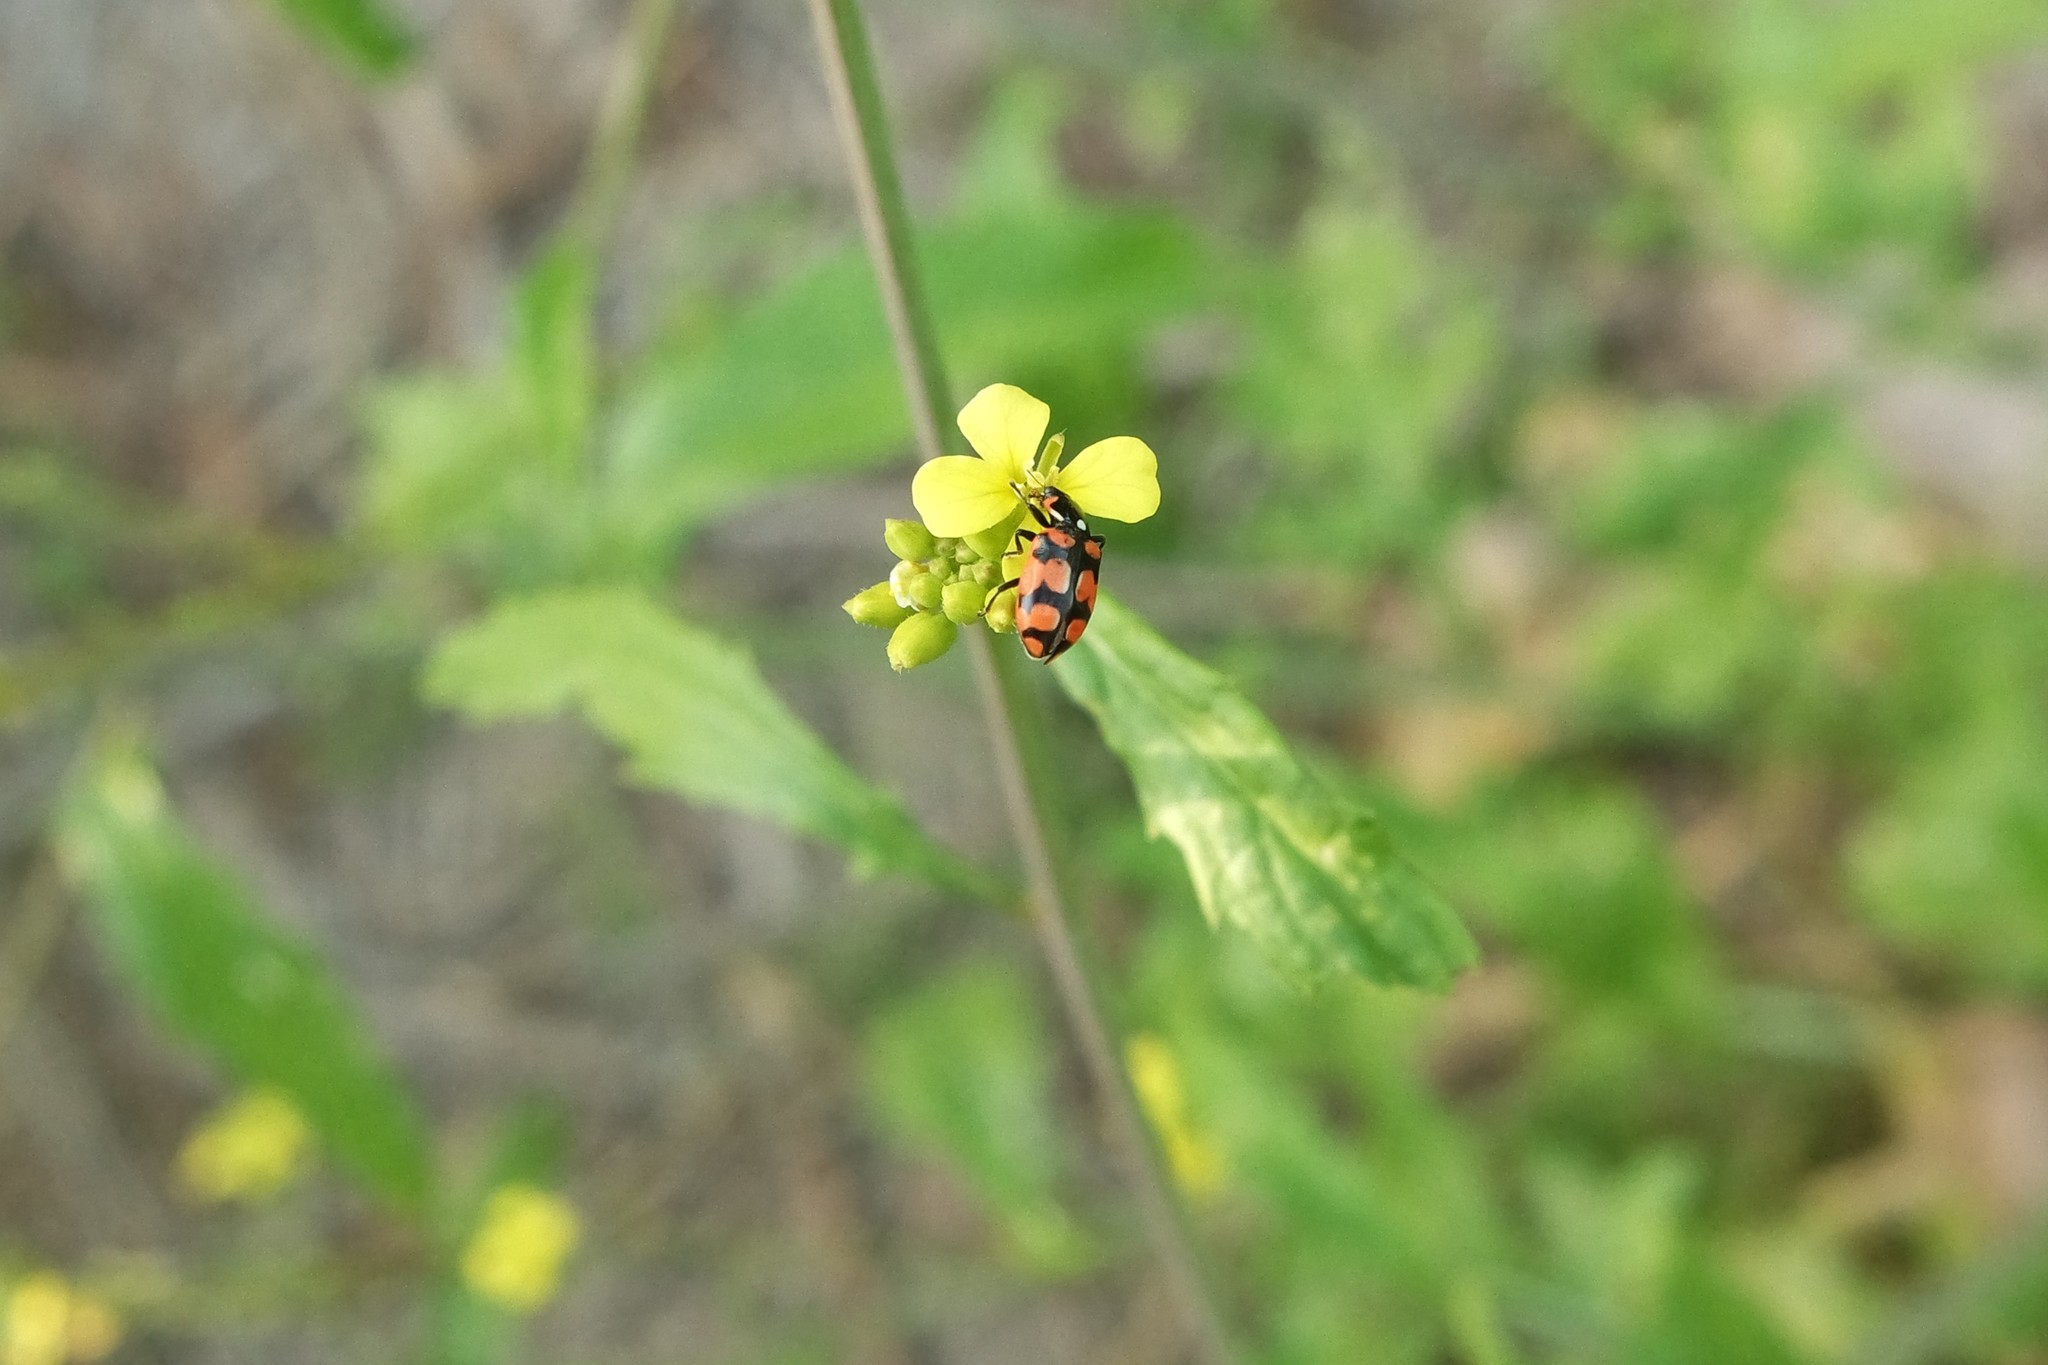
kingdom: Animalia
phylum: Arthropoda
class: Insecta
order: Coleoptera
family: Coccinellidae
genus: Eriopis
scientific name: Eriopis chilensis
